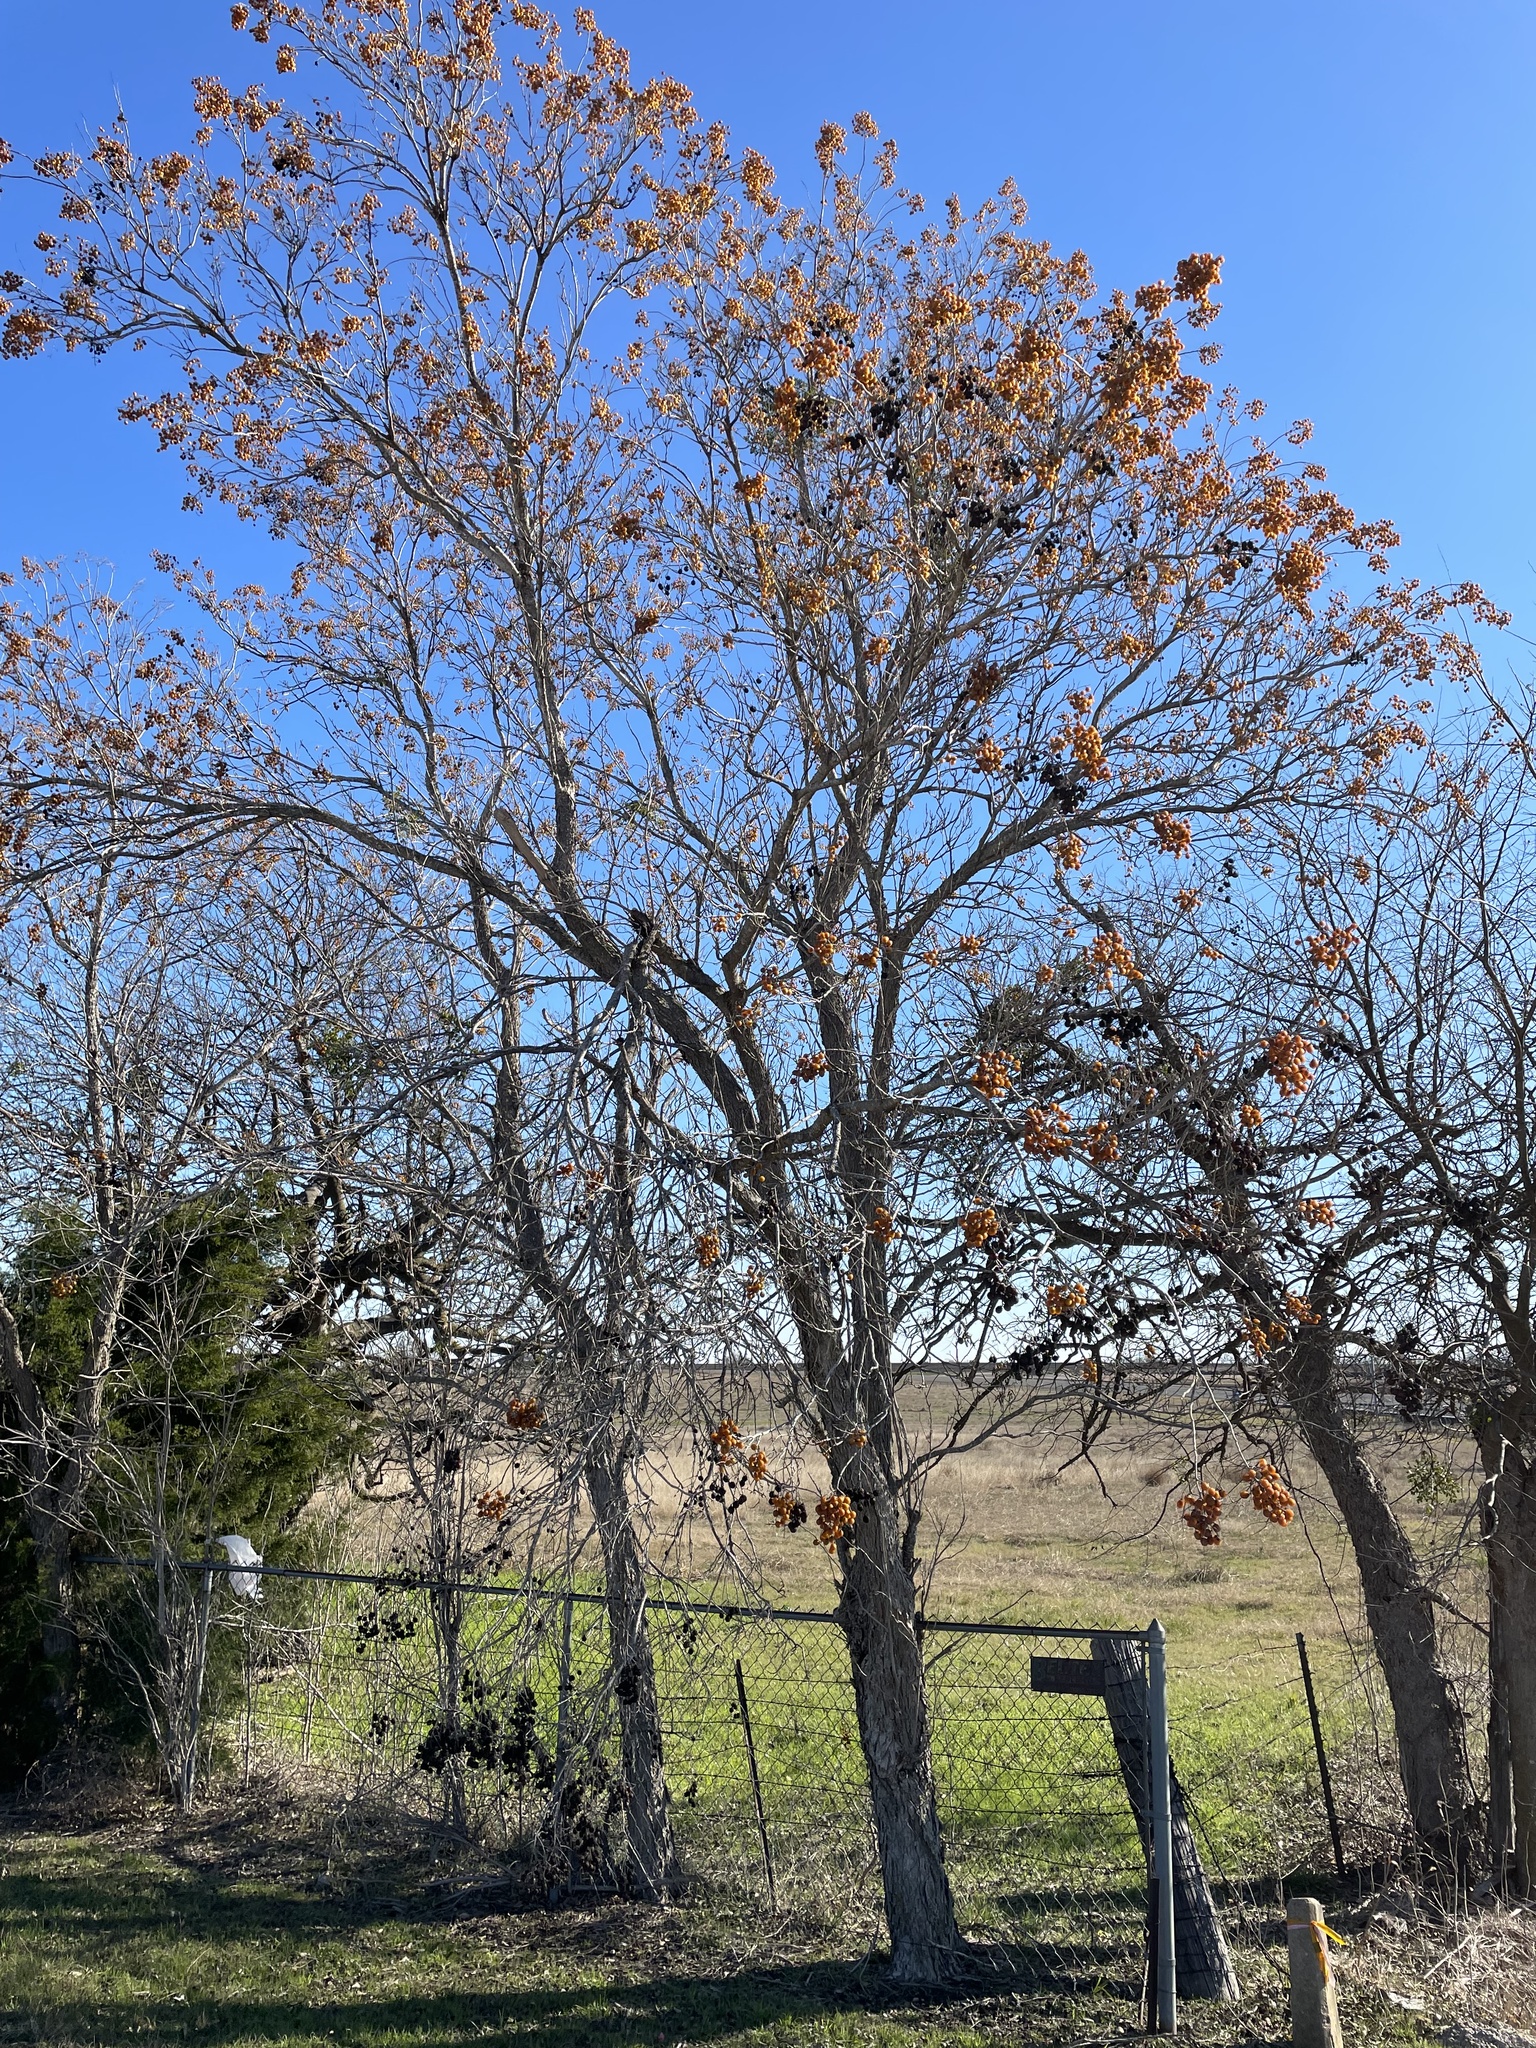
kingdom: Plantae
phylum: Tracheophyta
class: Magnoliopsida
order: Sapindales
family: Sapindaceae
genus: Sapindus
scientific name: Sapindus drummondii
